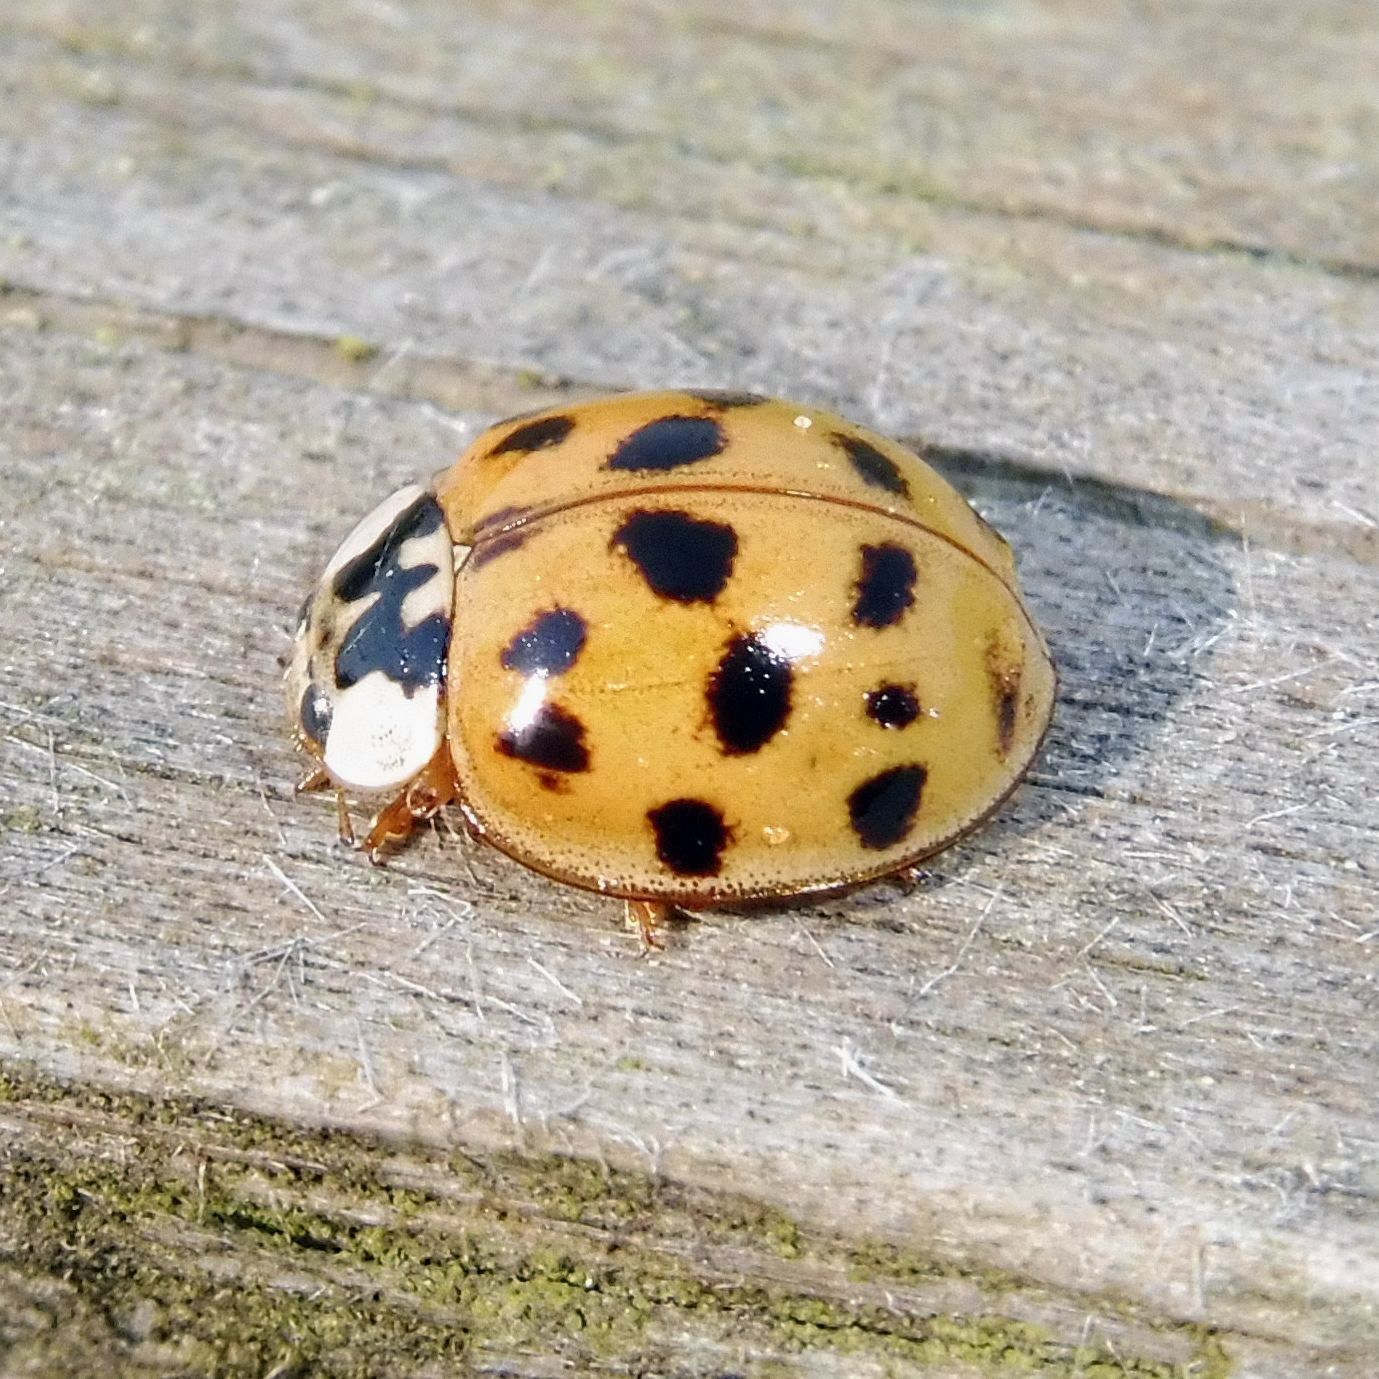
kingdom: Animalia
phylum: Arthropoda
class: Insecta
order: Coleoptera
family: Coccinellidae
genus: Harmonia
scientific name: Harmonia axyridis
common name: Harlequin ladybird
